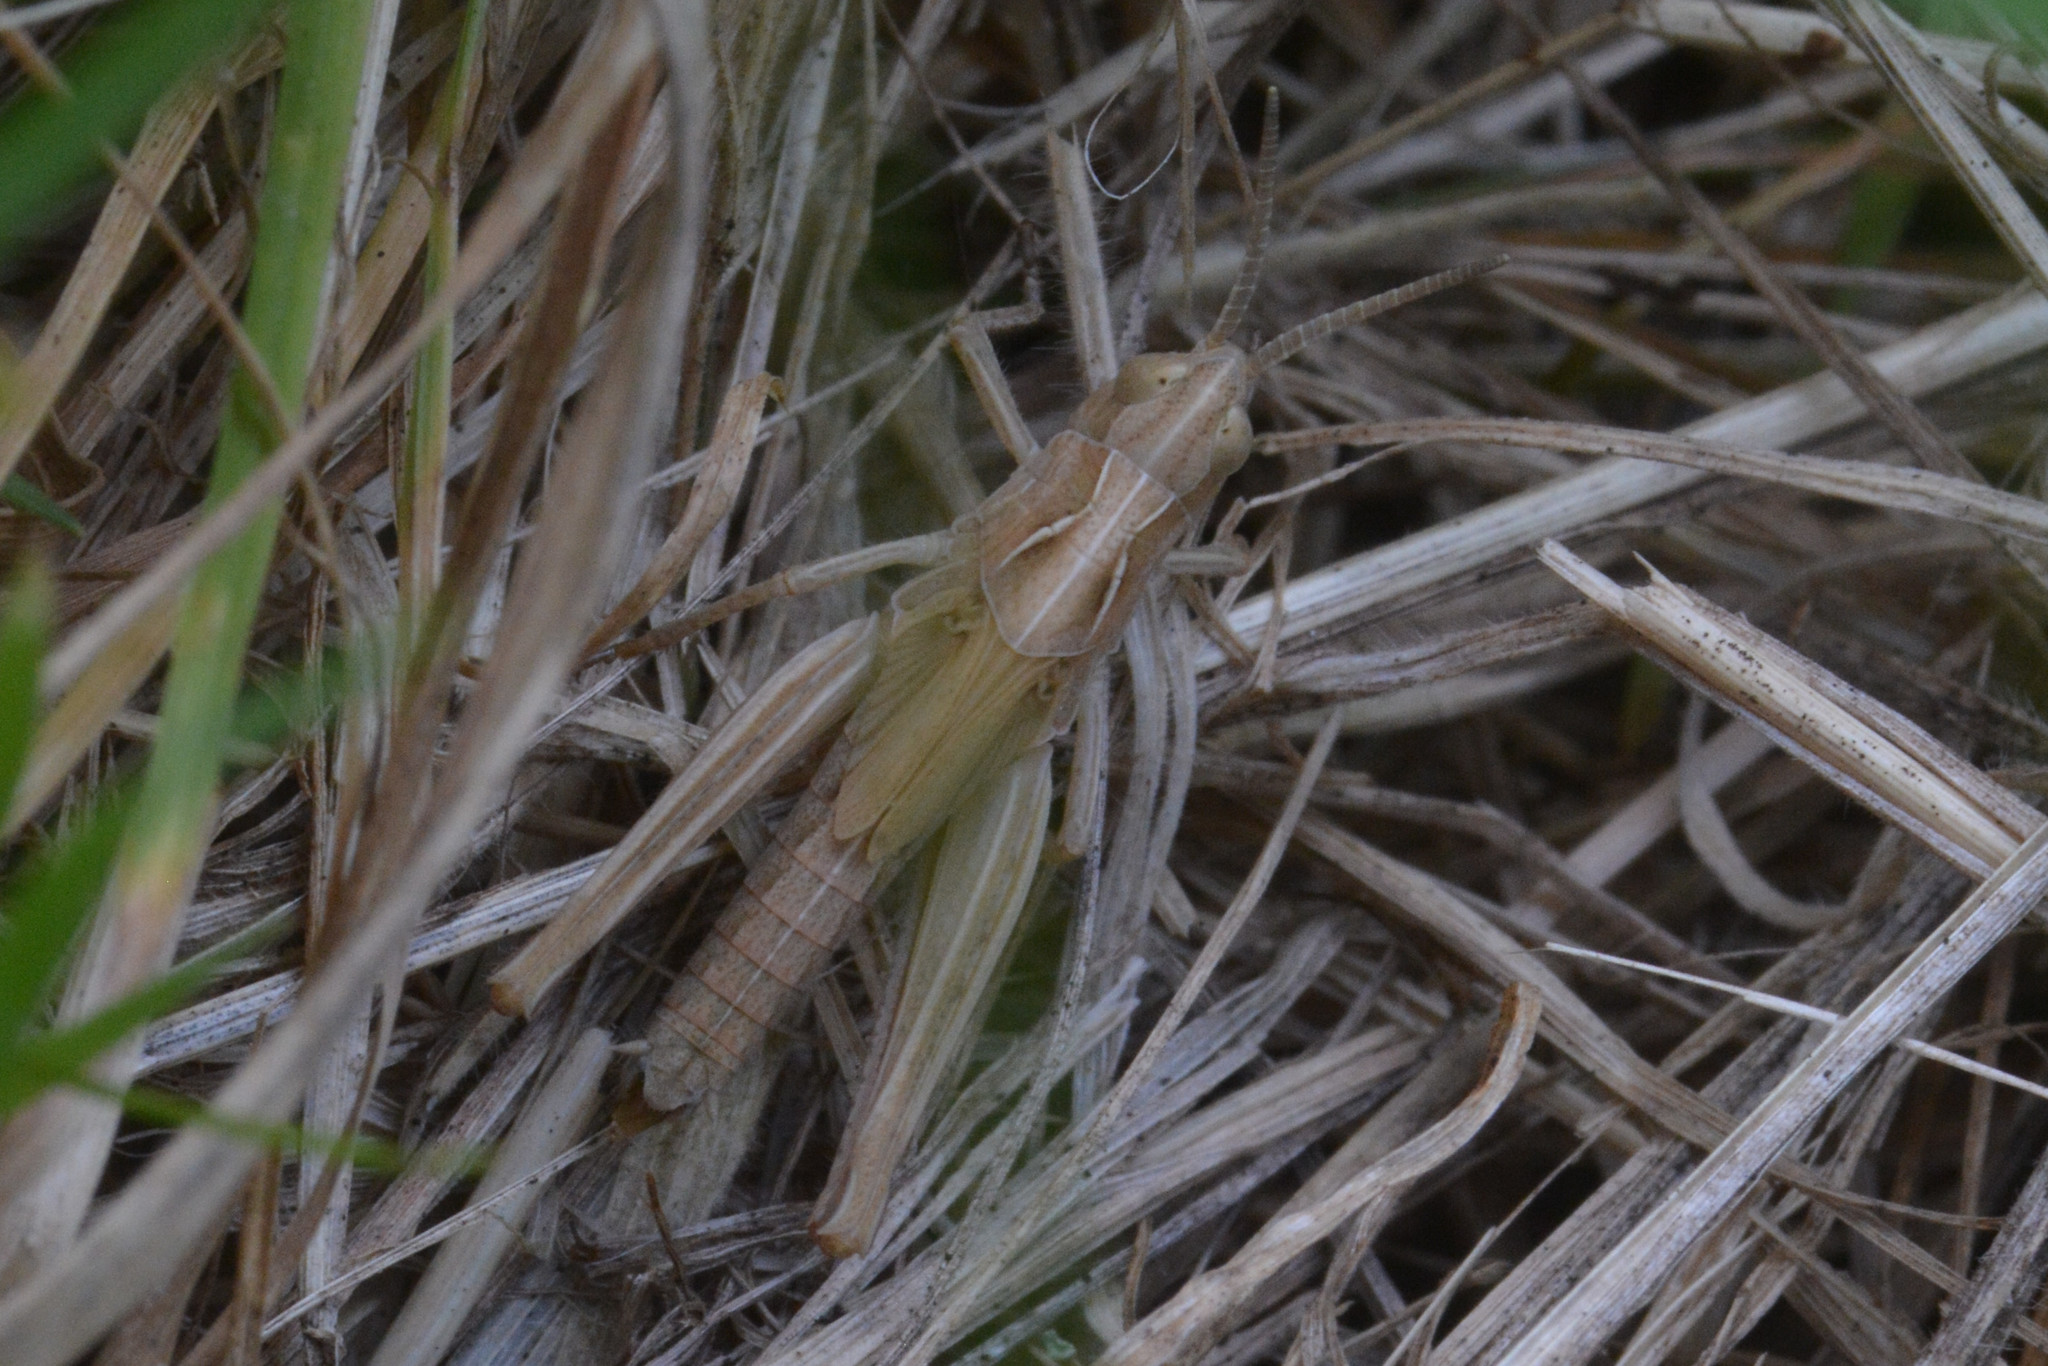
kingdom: Animalia
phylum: Arthropoda
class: Insecta
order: Orthoptera
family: Acrididae
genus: Chorthippus
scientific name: Chorthippus brunneus
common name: Field grasshopper
